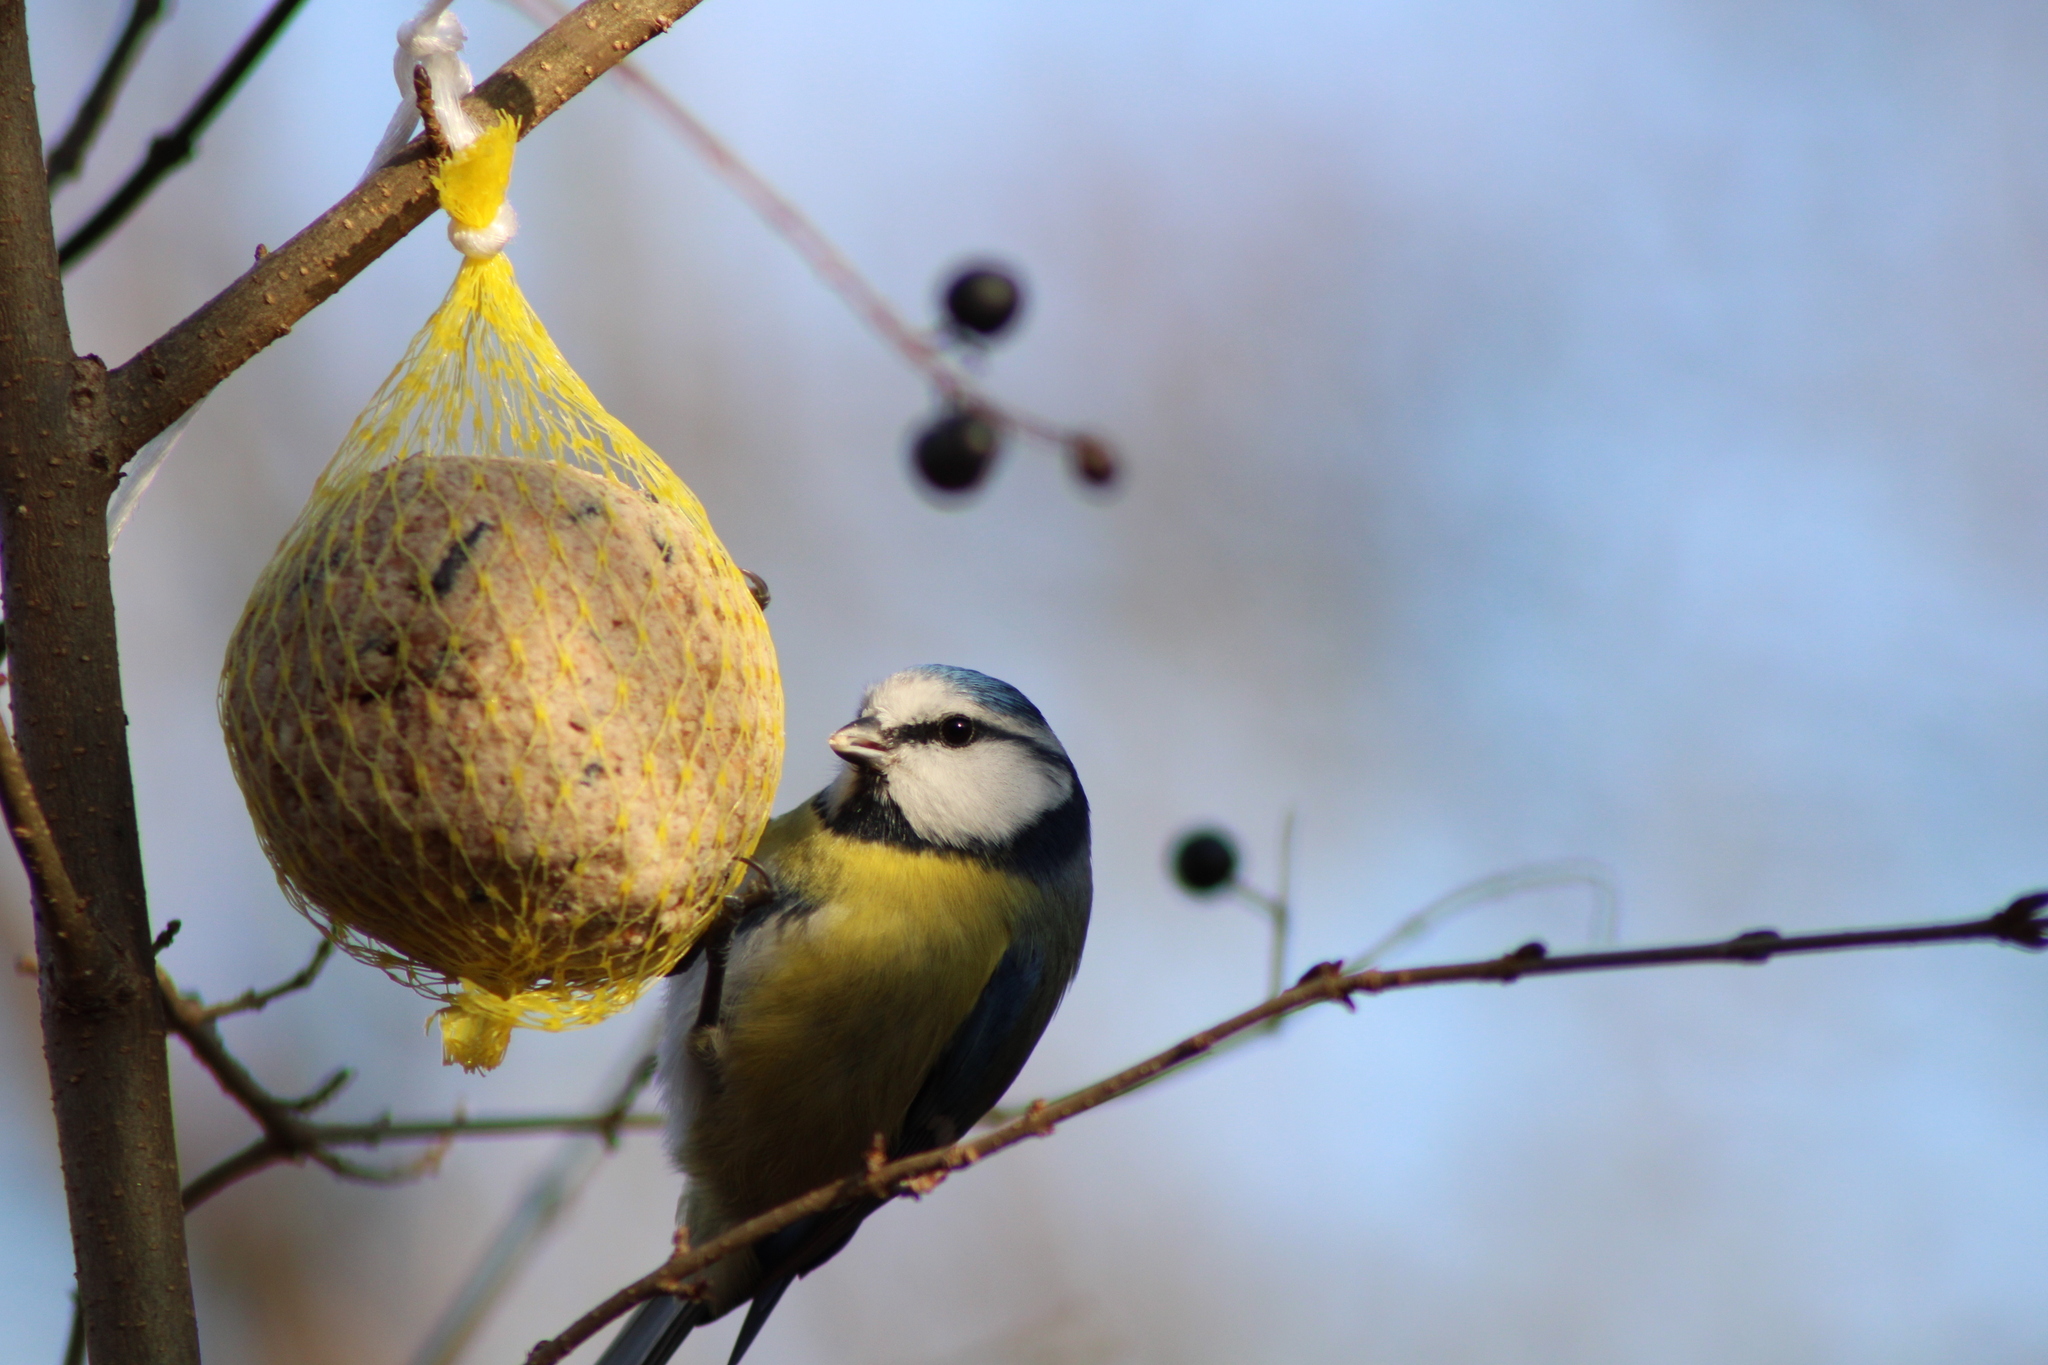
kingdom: Animalia
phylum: Chordata
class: Aves
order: Passeriformes
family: Paridae
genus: Cyanistes
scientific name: Cyanistes caeruleus
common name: Eurasian blue tit
